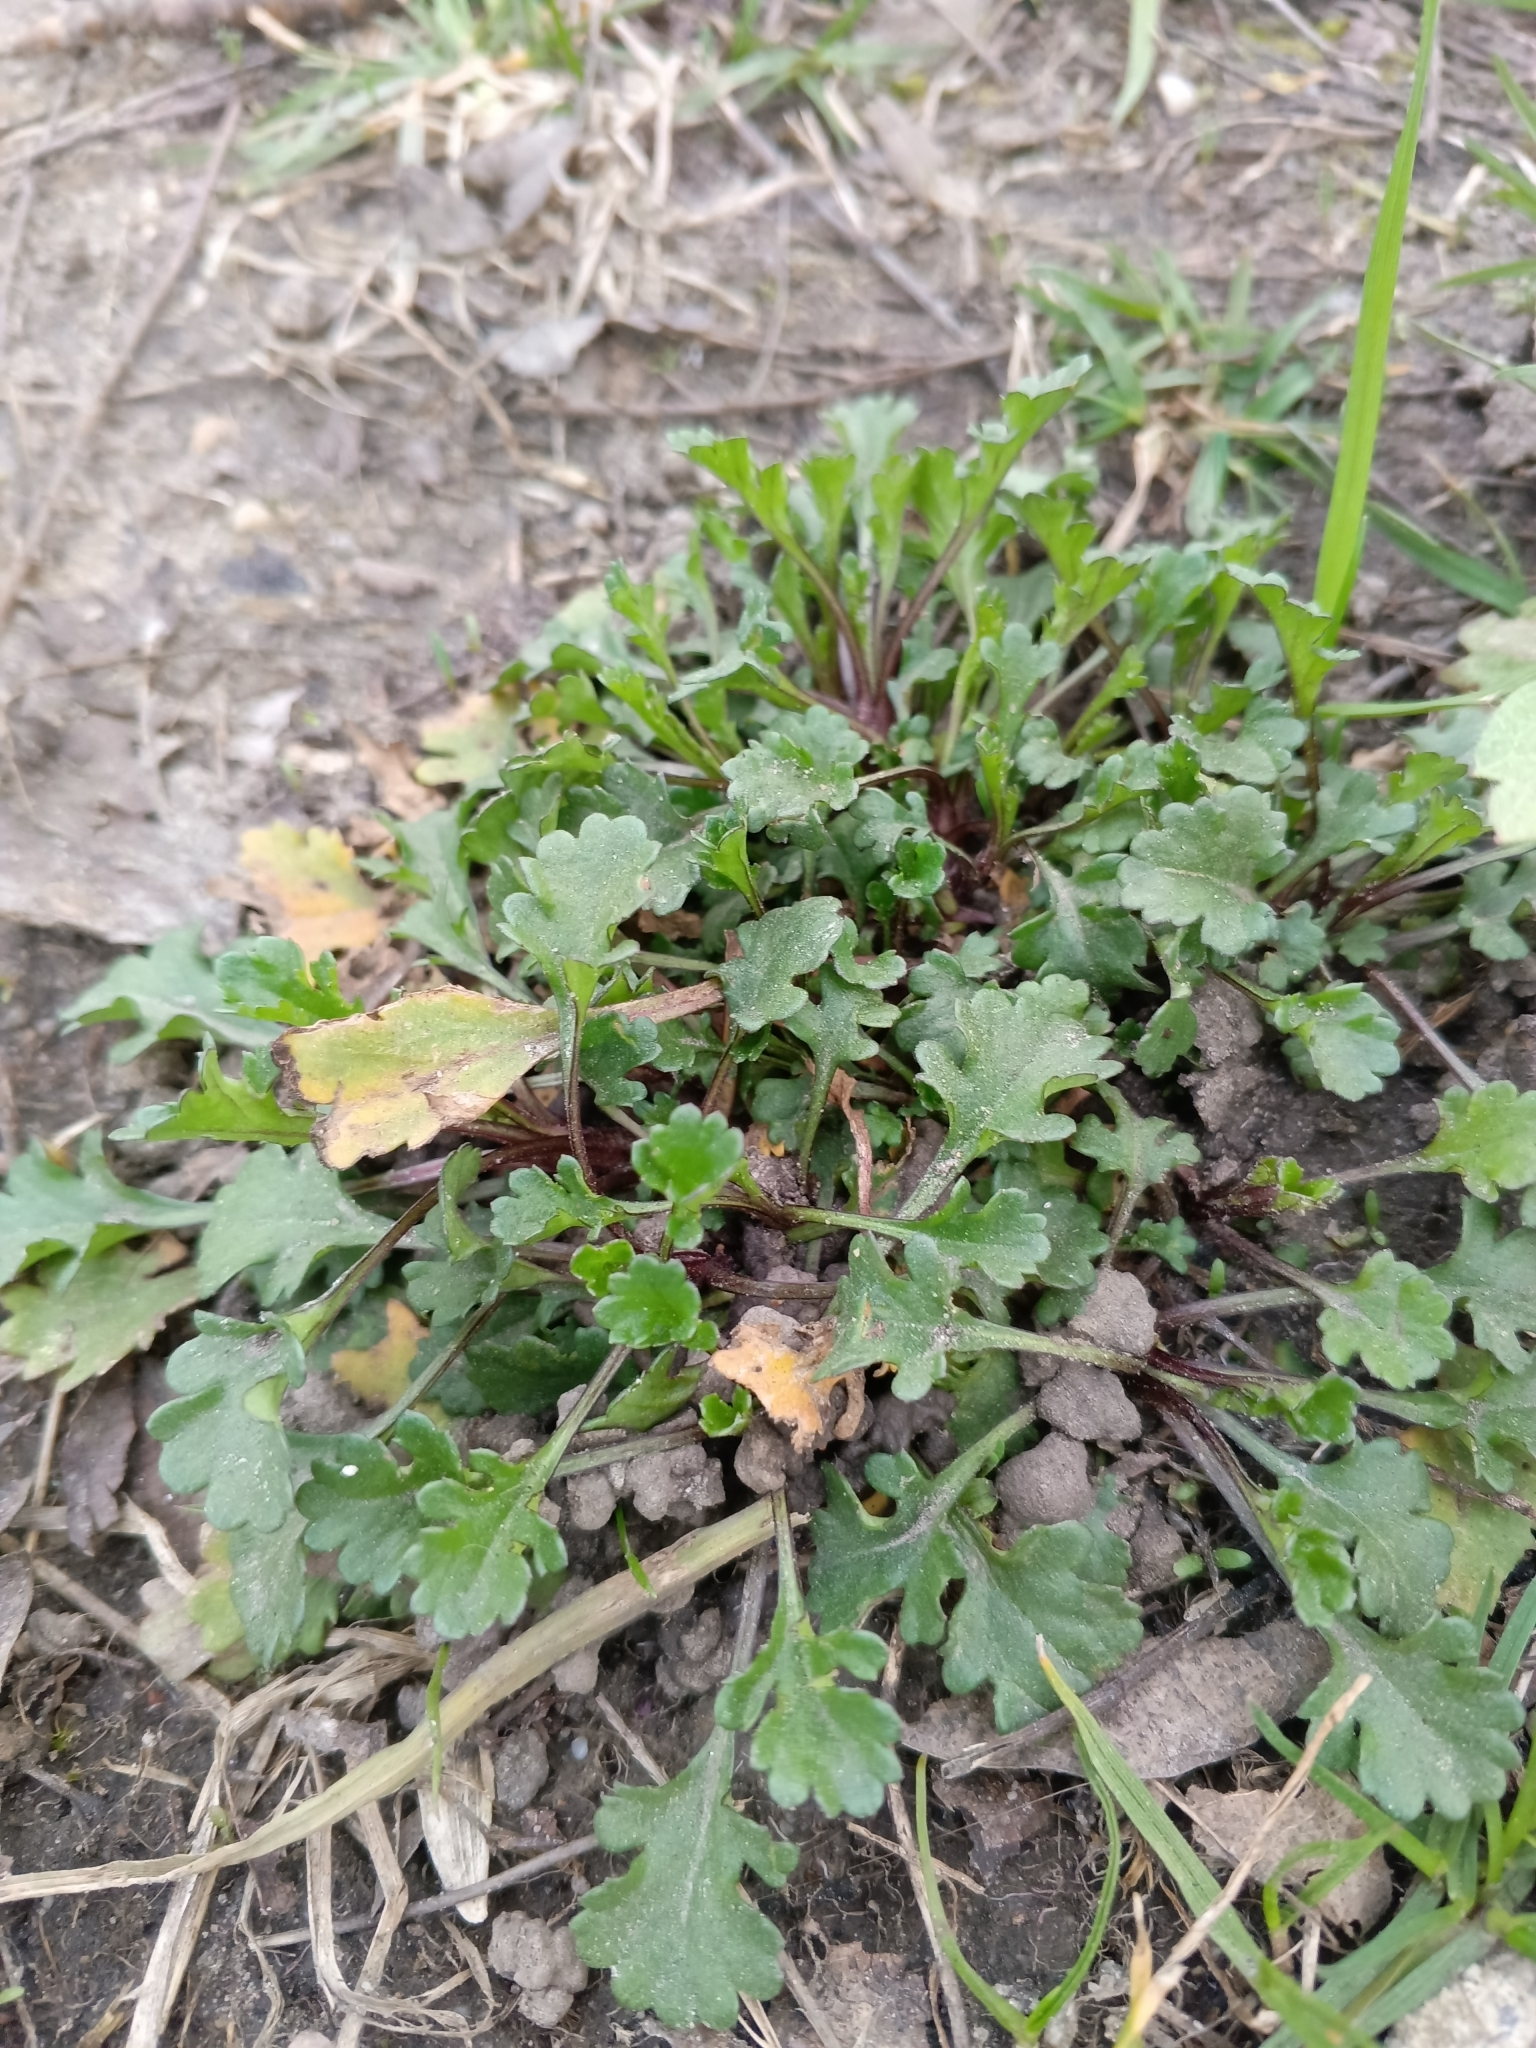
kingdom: Plantae
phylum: Tracheophyta
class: Magnoliopsida
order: Asterales
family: Asteraceae
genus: Leucanthemum
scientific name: Leucanthemum vulgare
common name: Oxeye daisy
